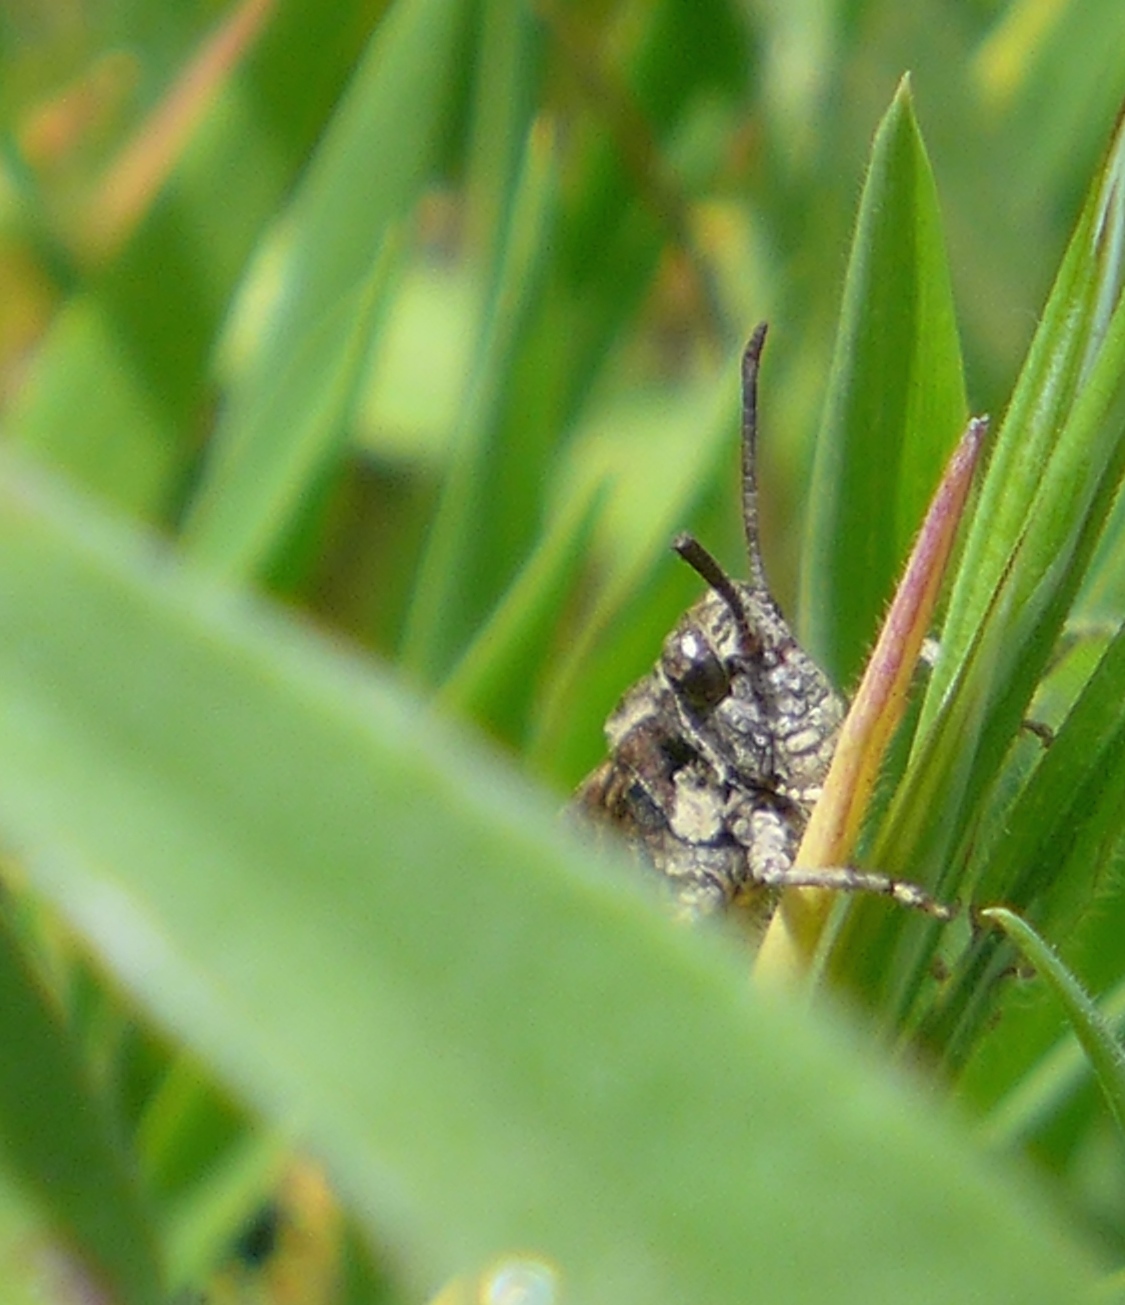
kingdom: Animalia
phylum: Arthropoda
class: Insecta
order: Orthoptera
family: Acrididae
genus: Chimarocephala
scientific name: Chimarocephala pacifica
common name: Painted meadow grasshopper
